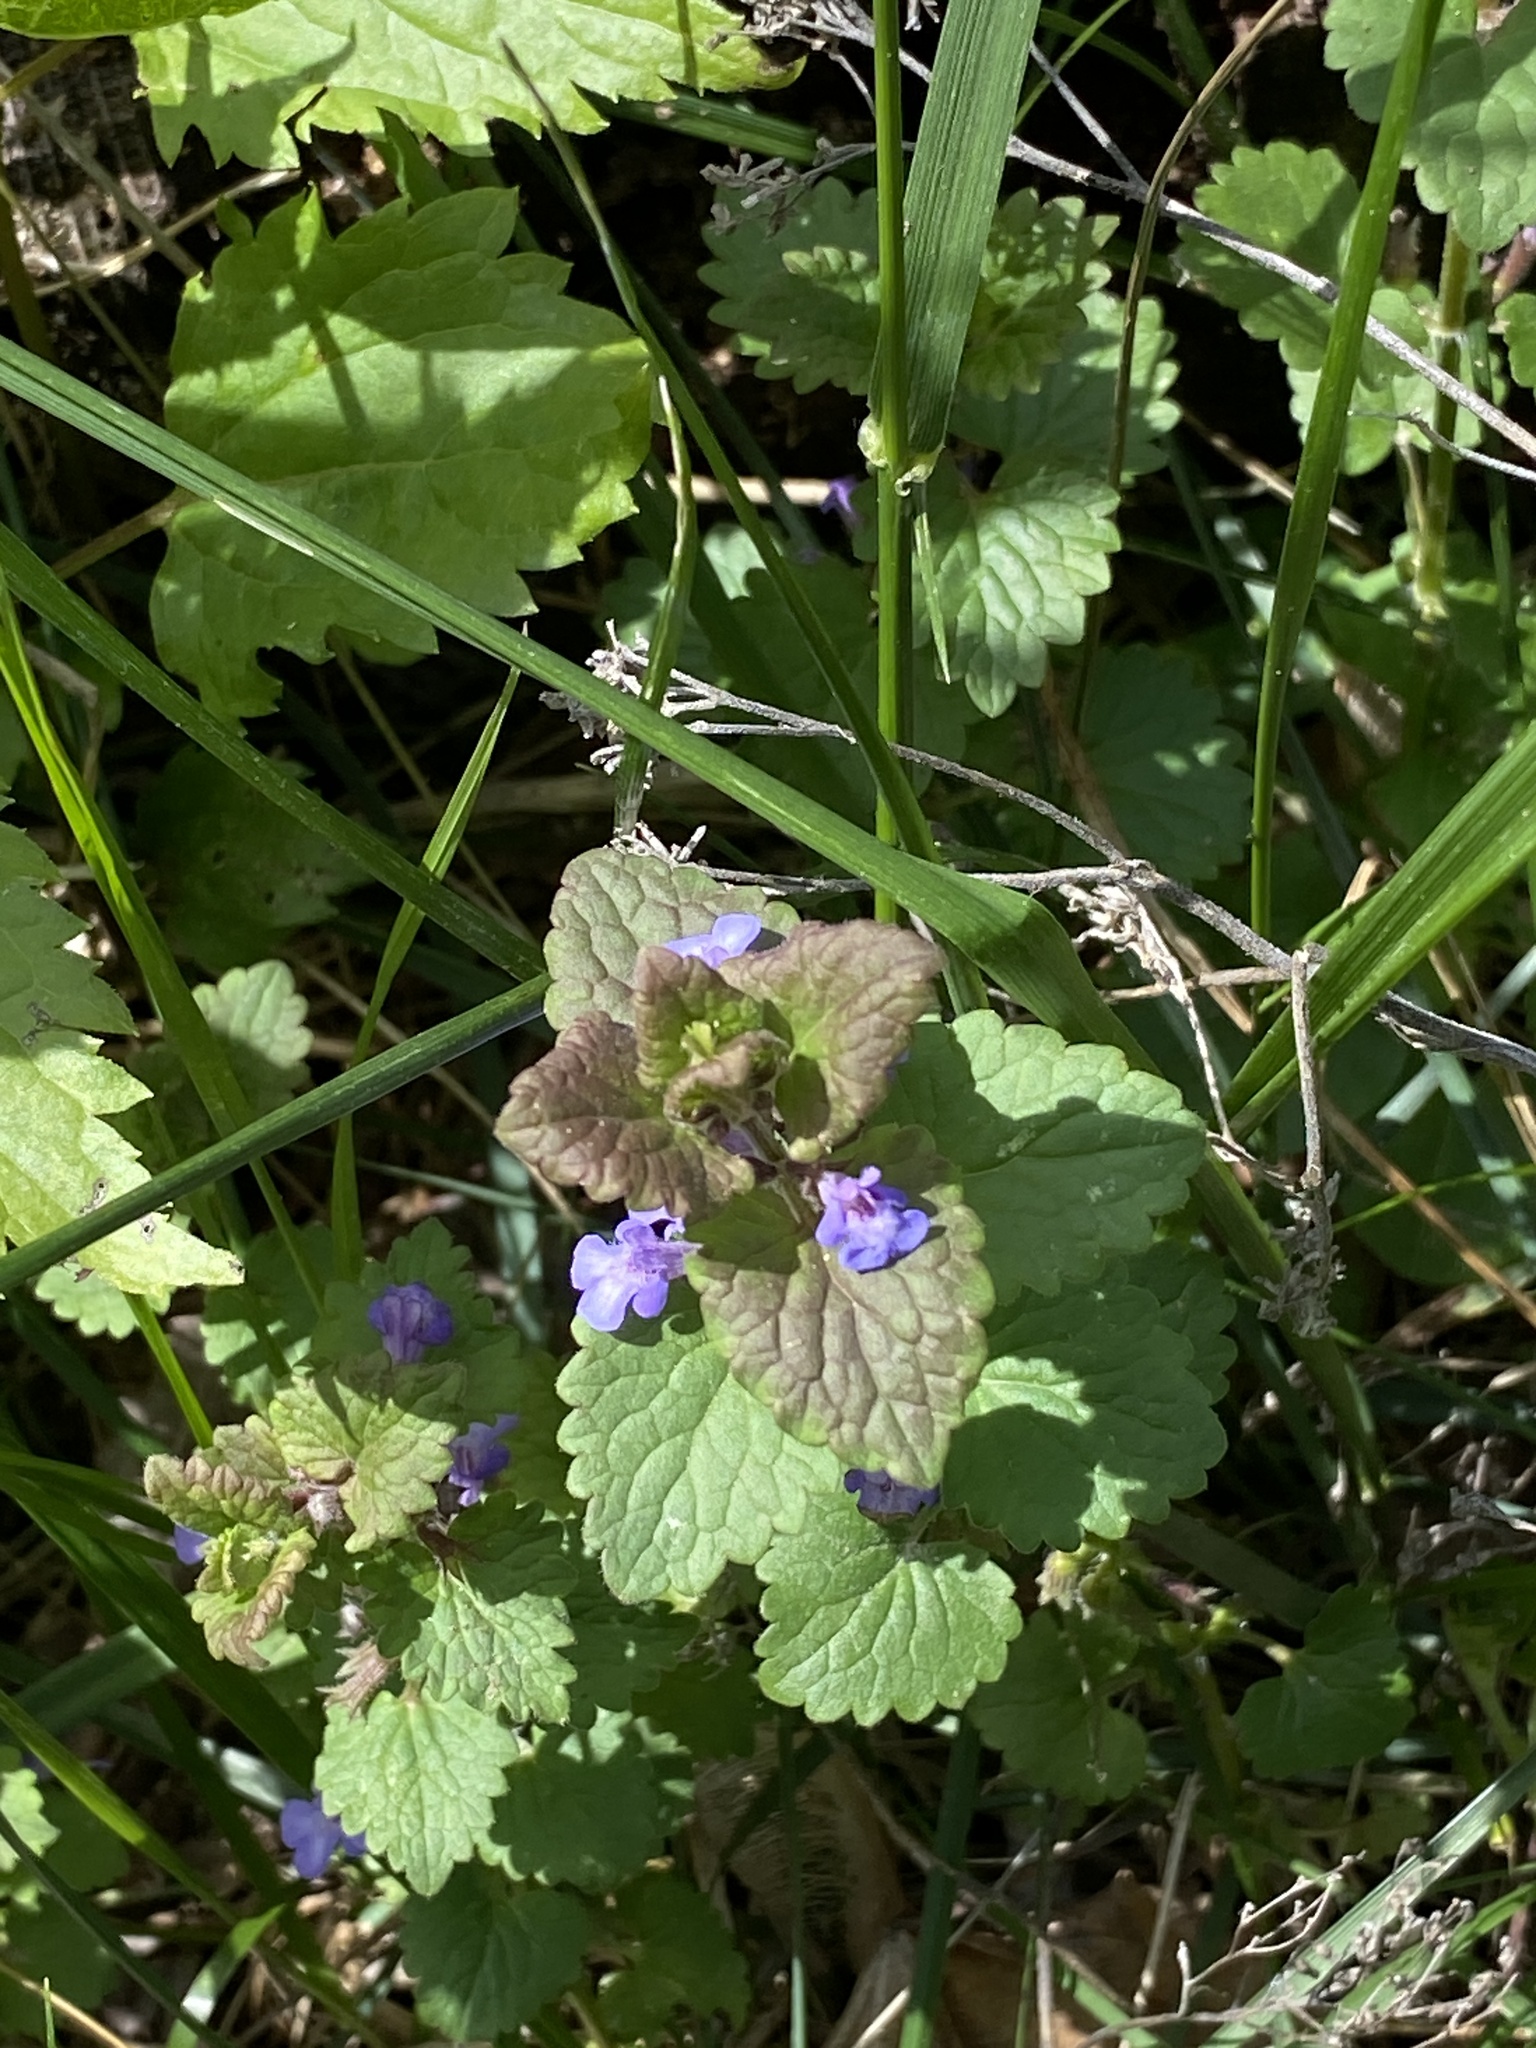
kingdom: Plantae
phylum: Tracheophyta
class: Magnoliopsida
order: Lamiales
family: Lamiaceae
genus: Glechoma
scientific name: Glechoma hederacea
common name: Ground ivy
